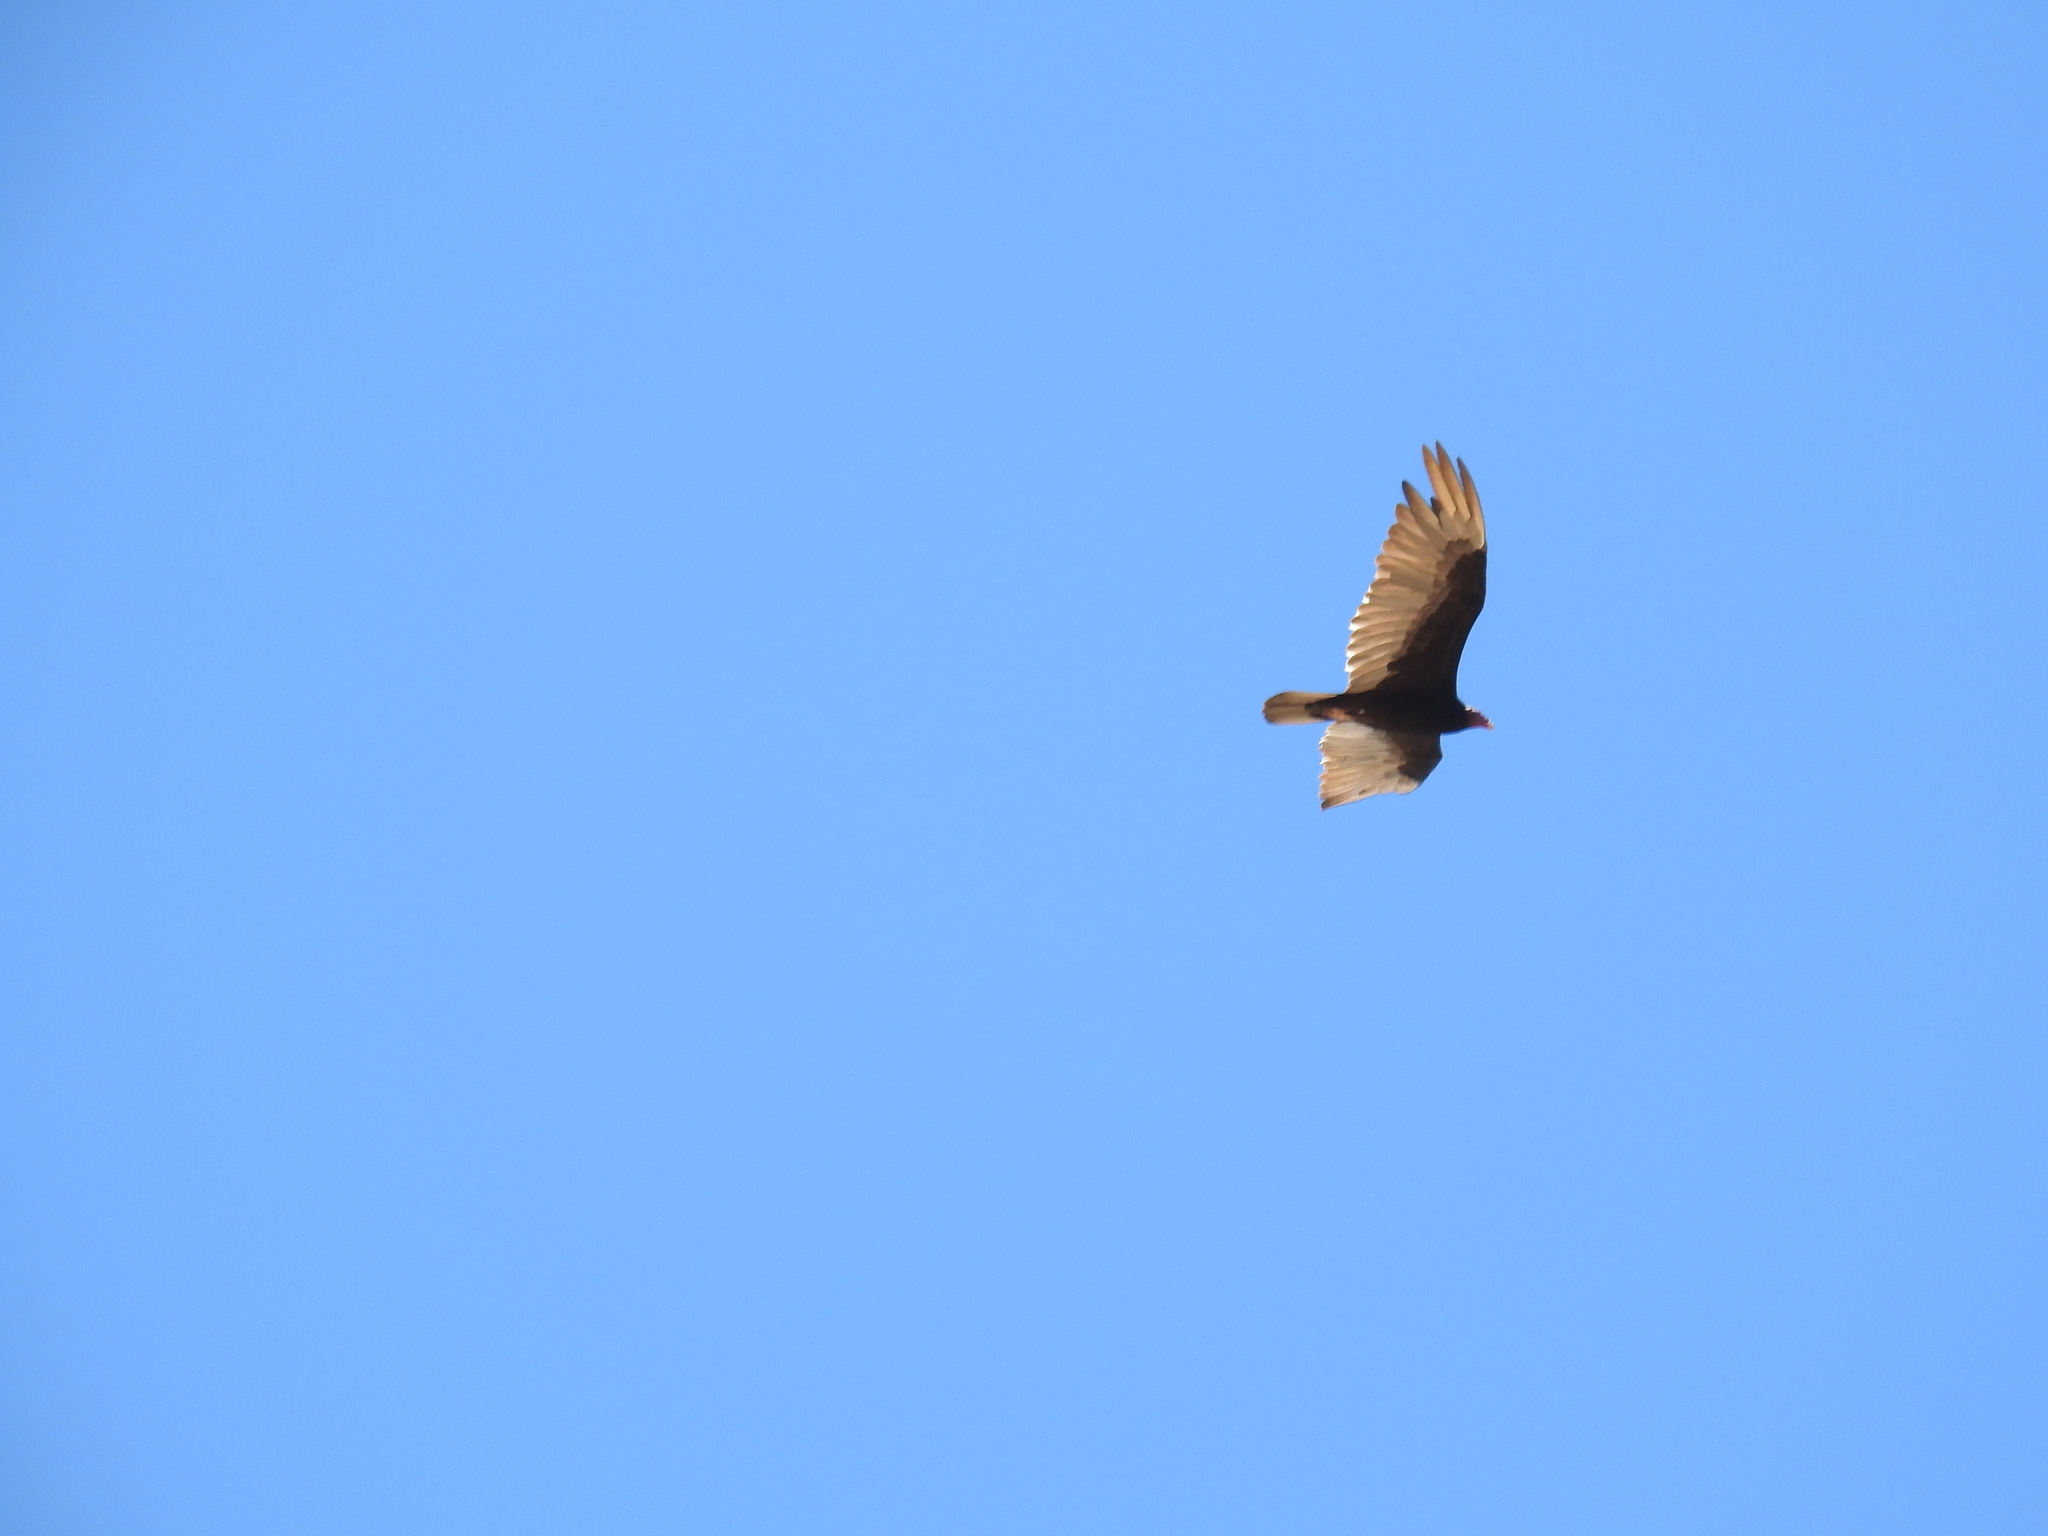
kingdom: Animalia
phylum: Chordata
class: Aves
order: Accipitriformes
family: Cathartidae
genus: Cathartes
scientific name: Cathartes aura
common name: Turkey vulture
